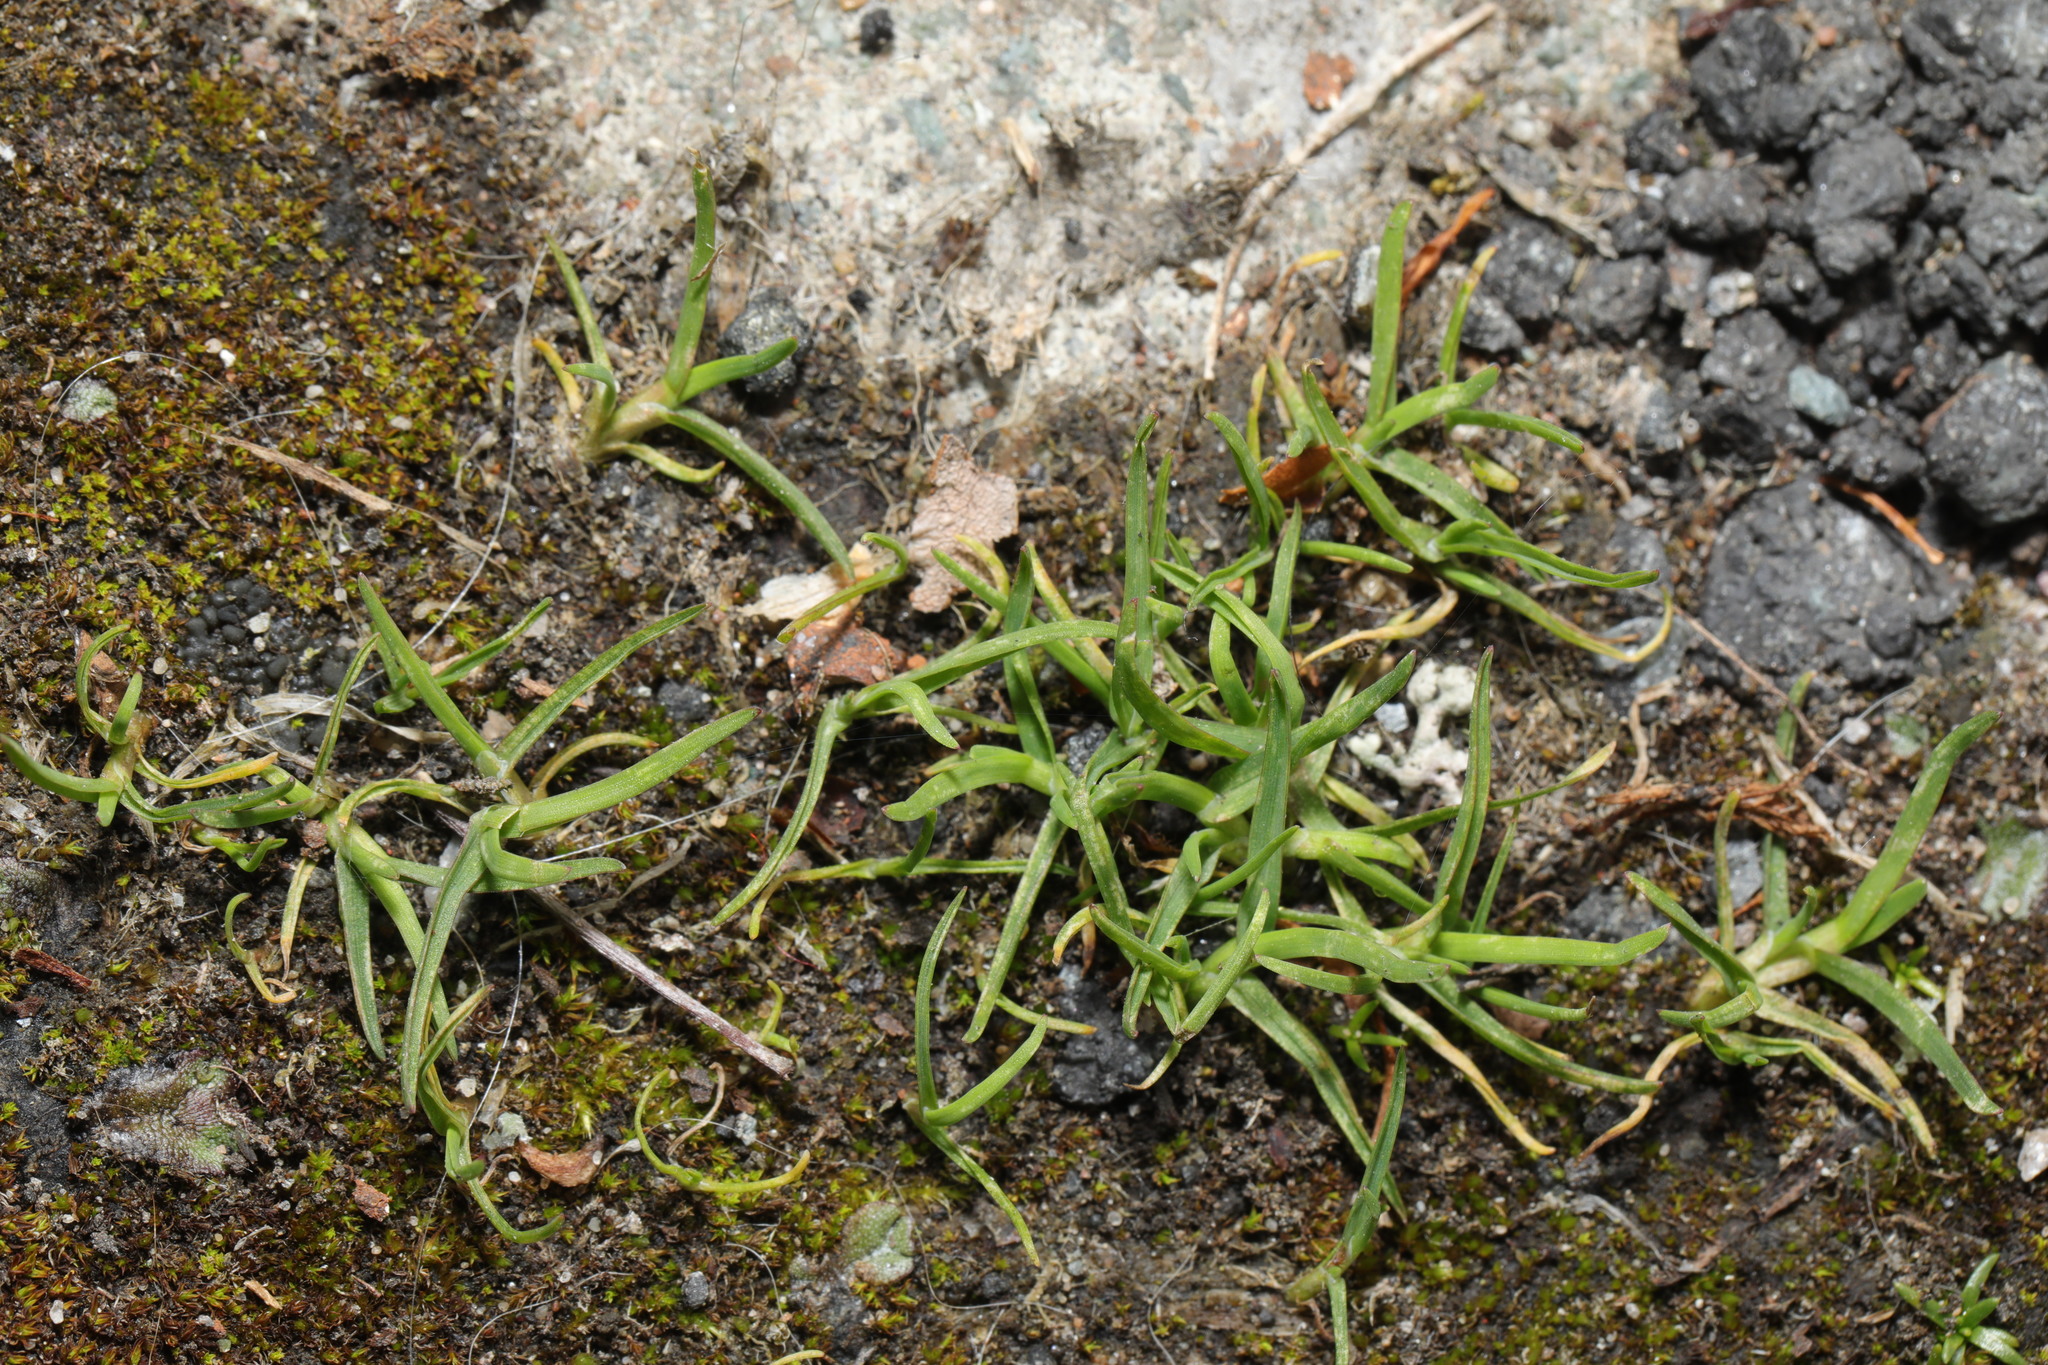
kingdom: Plantae
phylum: Tracheophyta
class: Magnoliopsida
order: Caryophyllales
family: Caryophyllaceae
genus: Sagina
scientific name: Sagina procumbens
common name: Procumbent pearlwort
